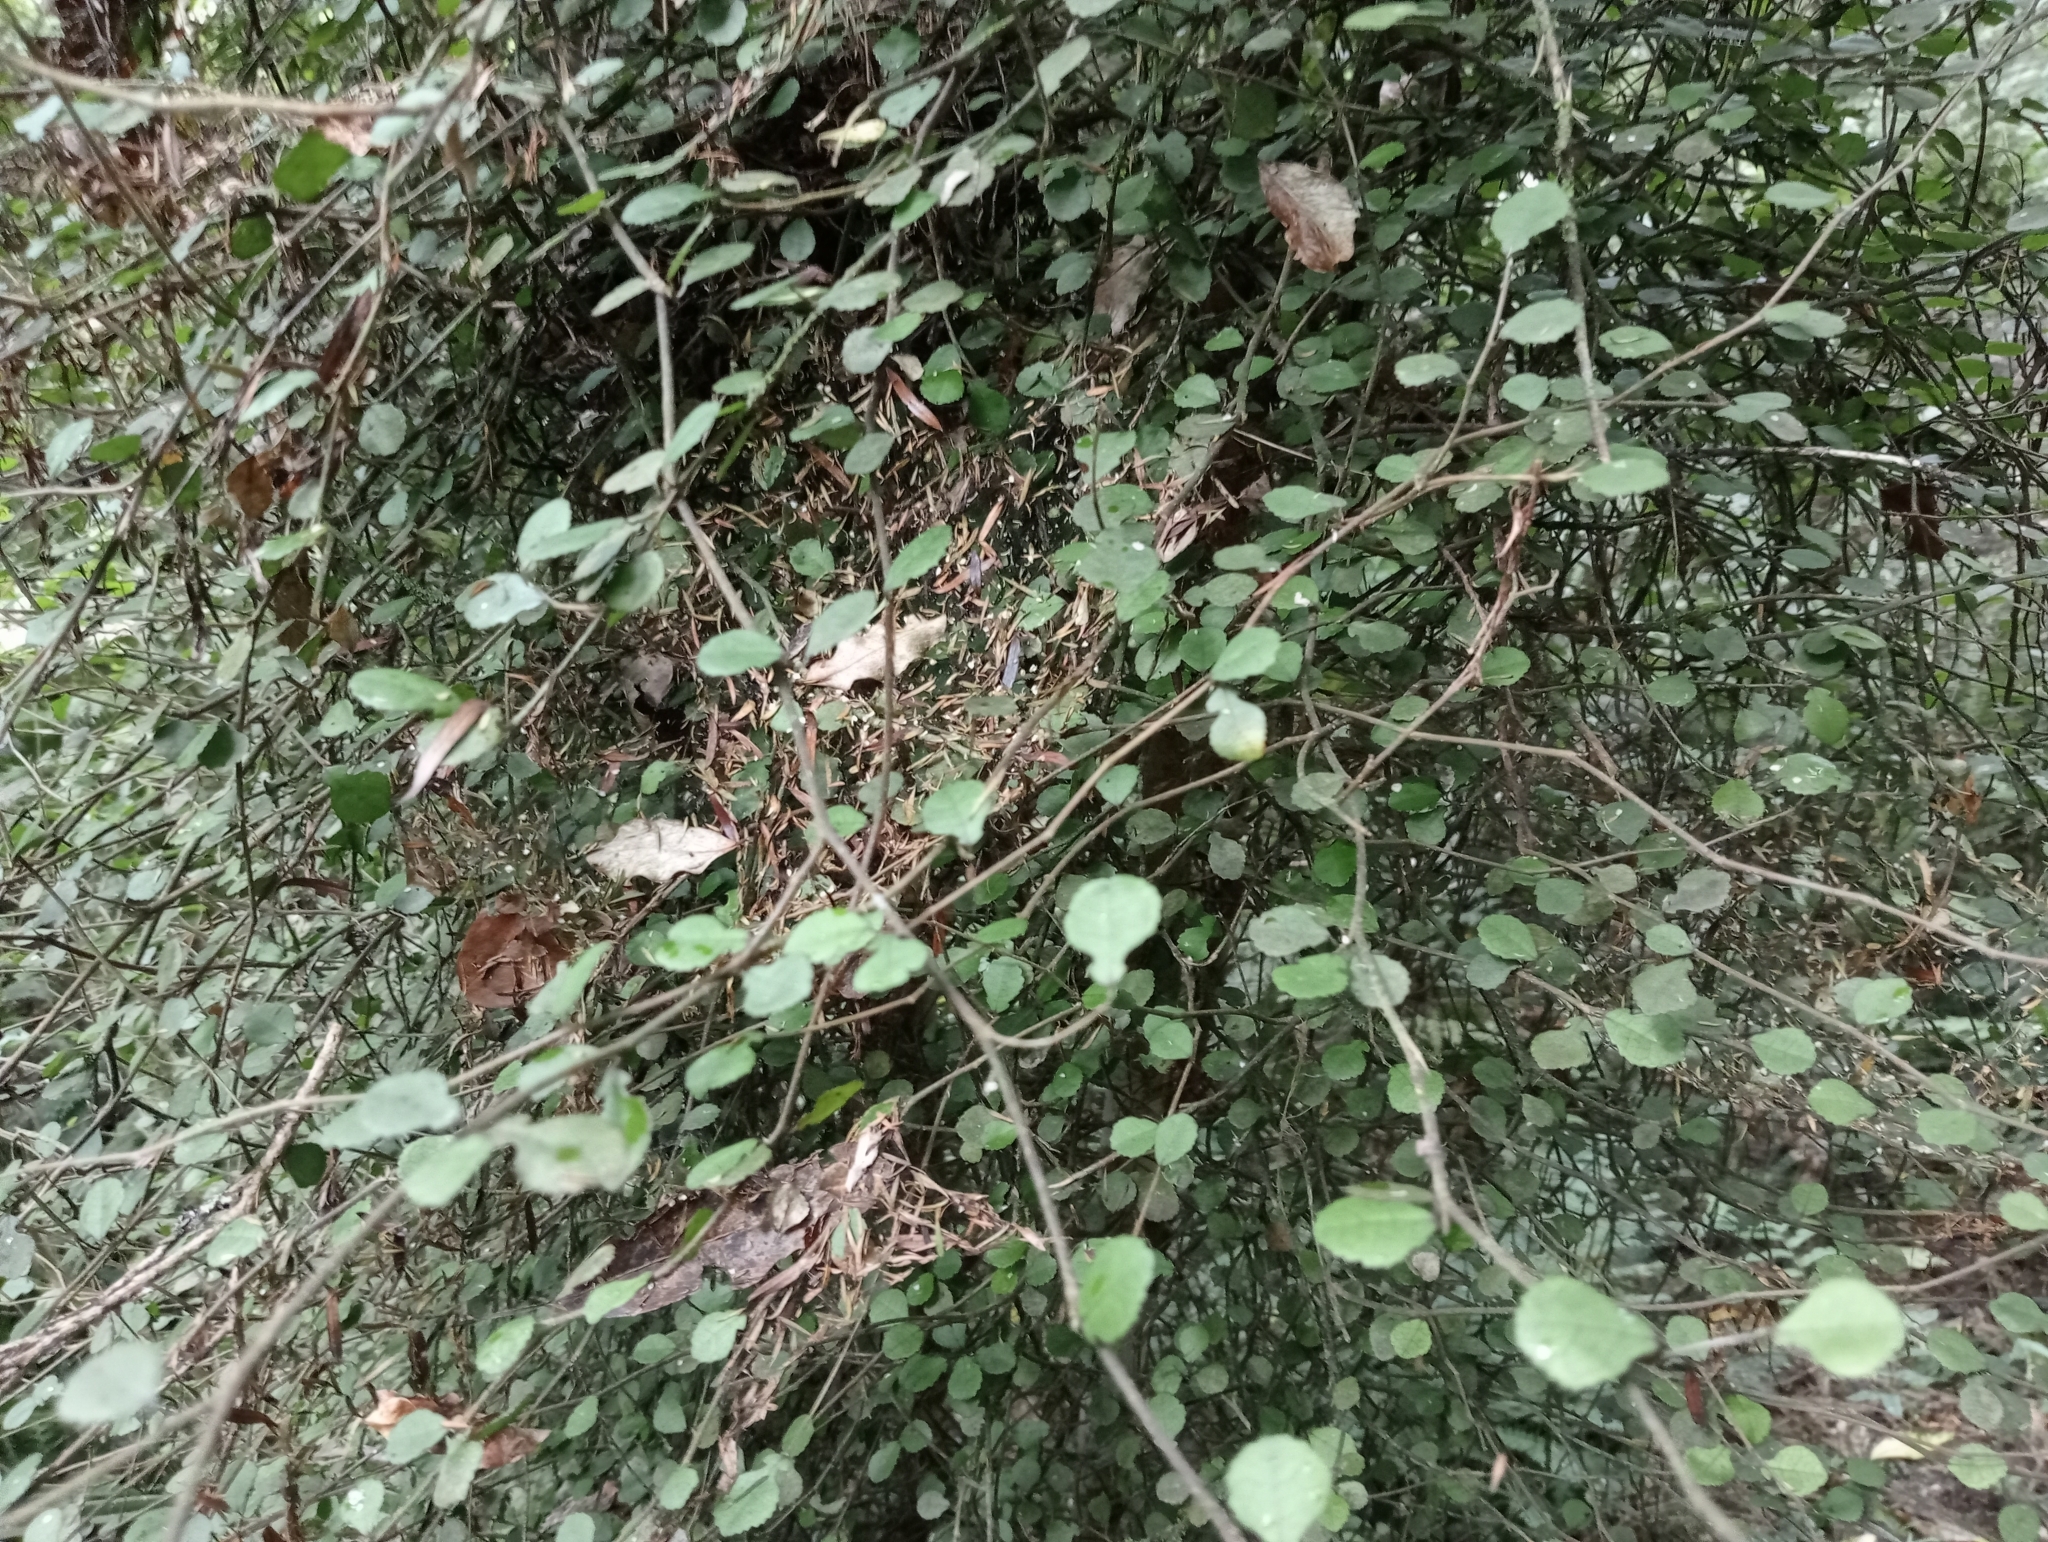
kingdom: Plantae
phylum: Tracheophyta
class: Magnoliopsida
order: Rosales
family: Moraceae
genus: Paratrophis
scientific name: Paratrophis microphylla
